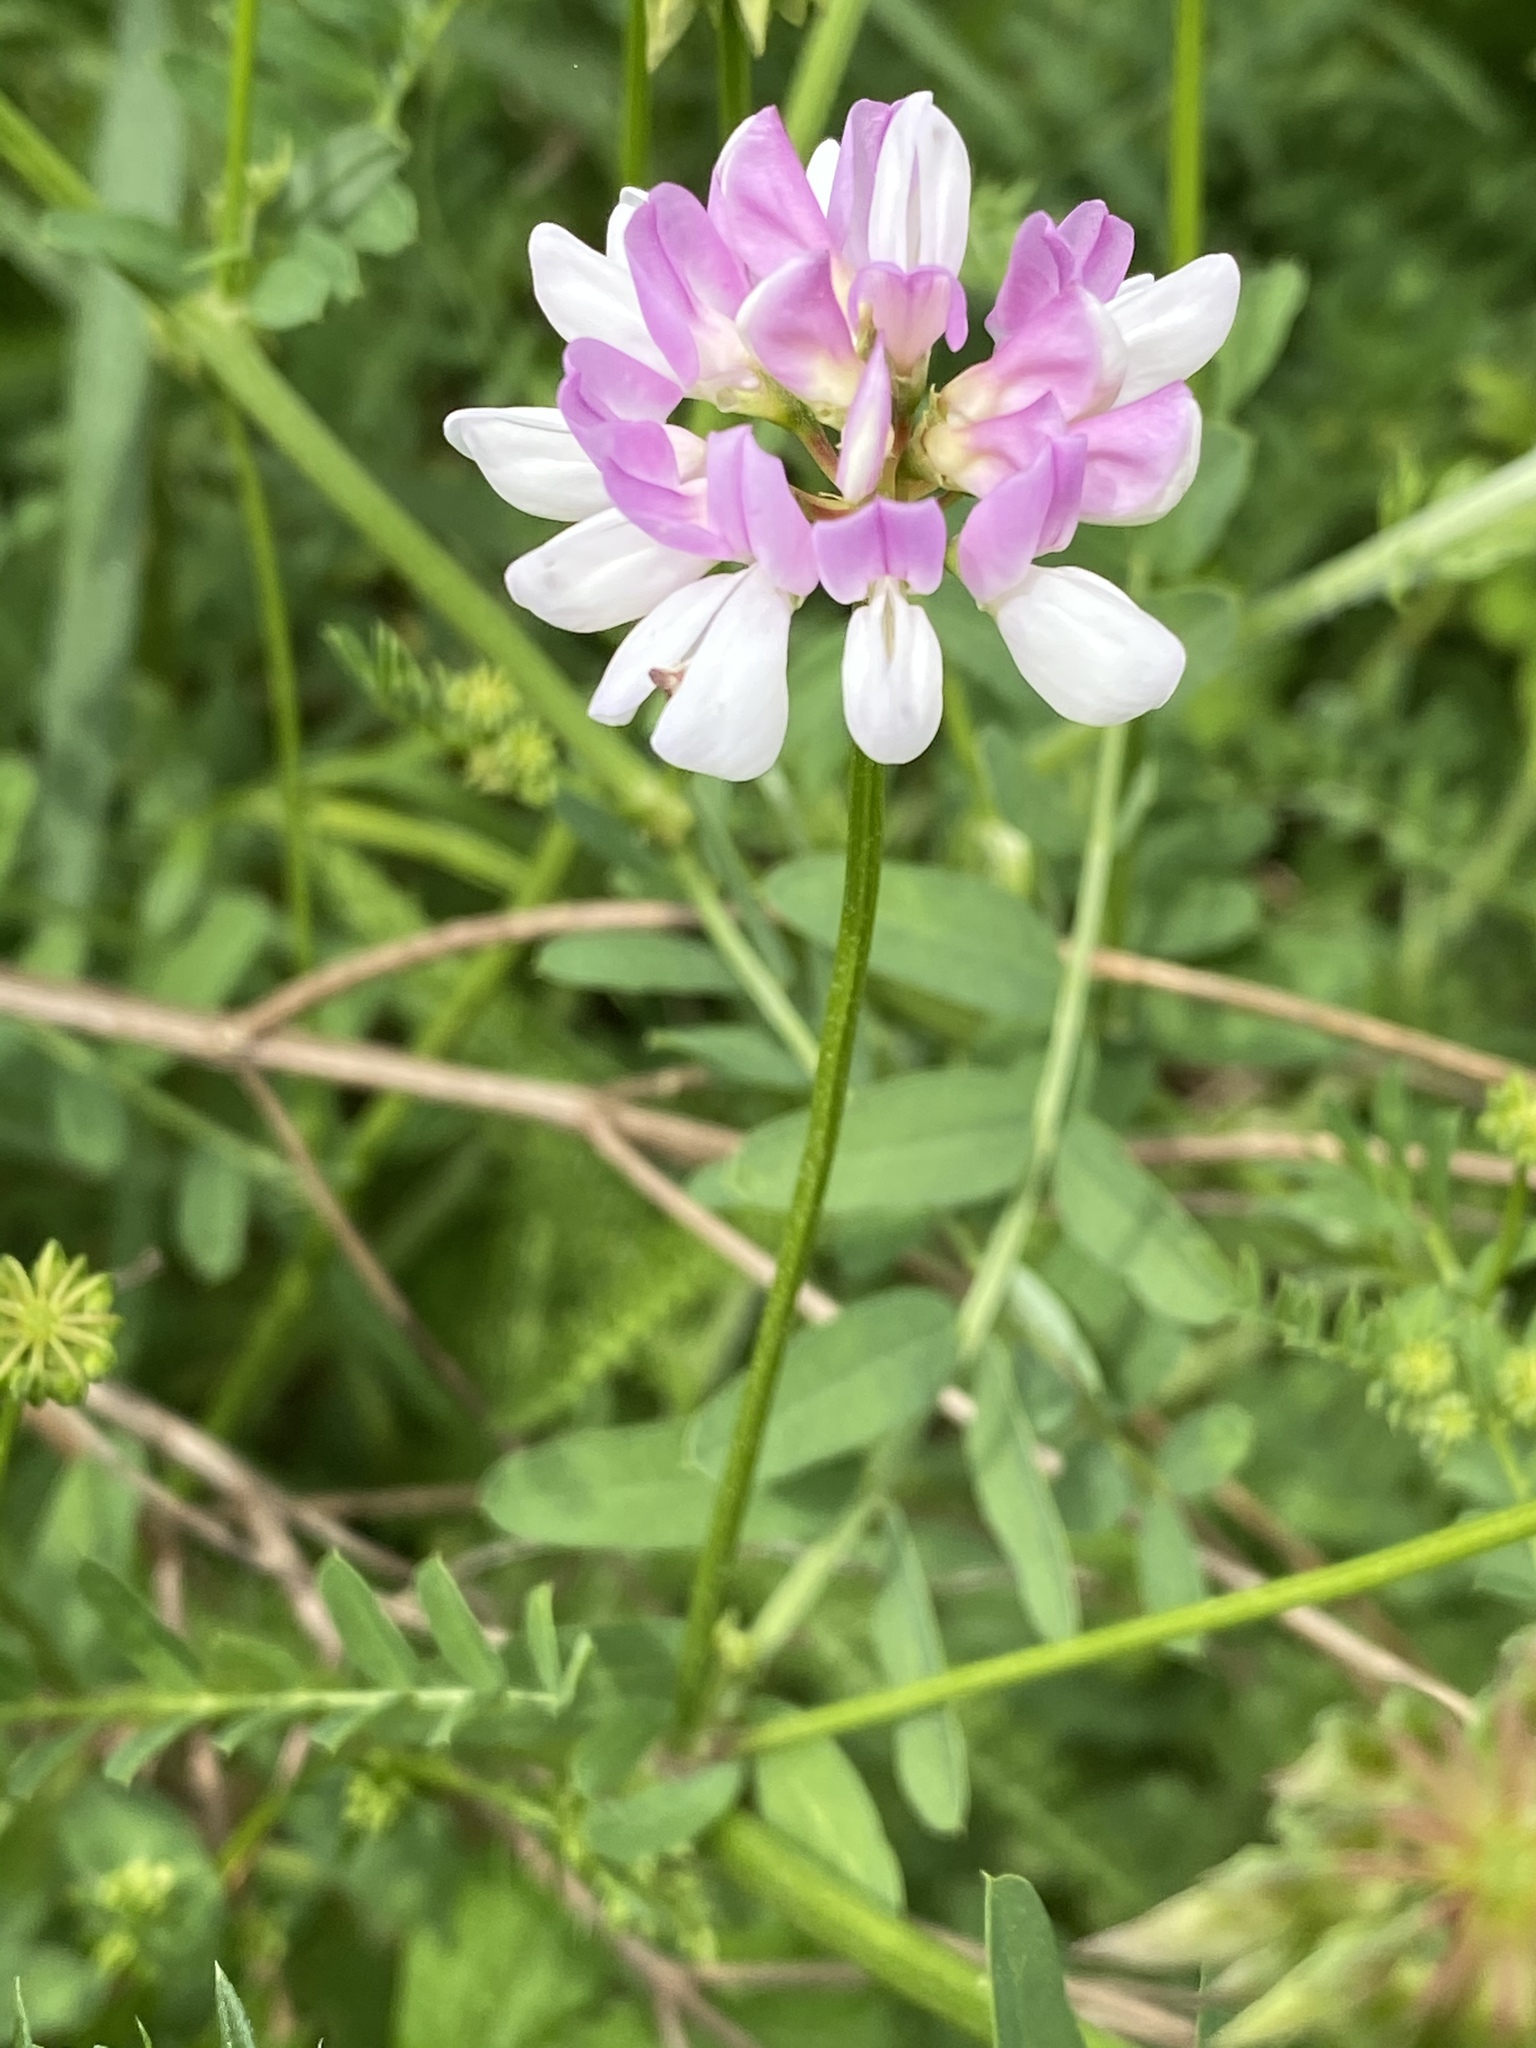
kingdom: Plantae
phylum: Tracheophyta
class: Magnoliopsida
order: Fabales
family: Fabaceae
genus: Coronilla
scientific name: Coronilla varia
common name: Crownvetch
